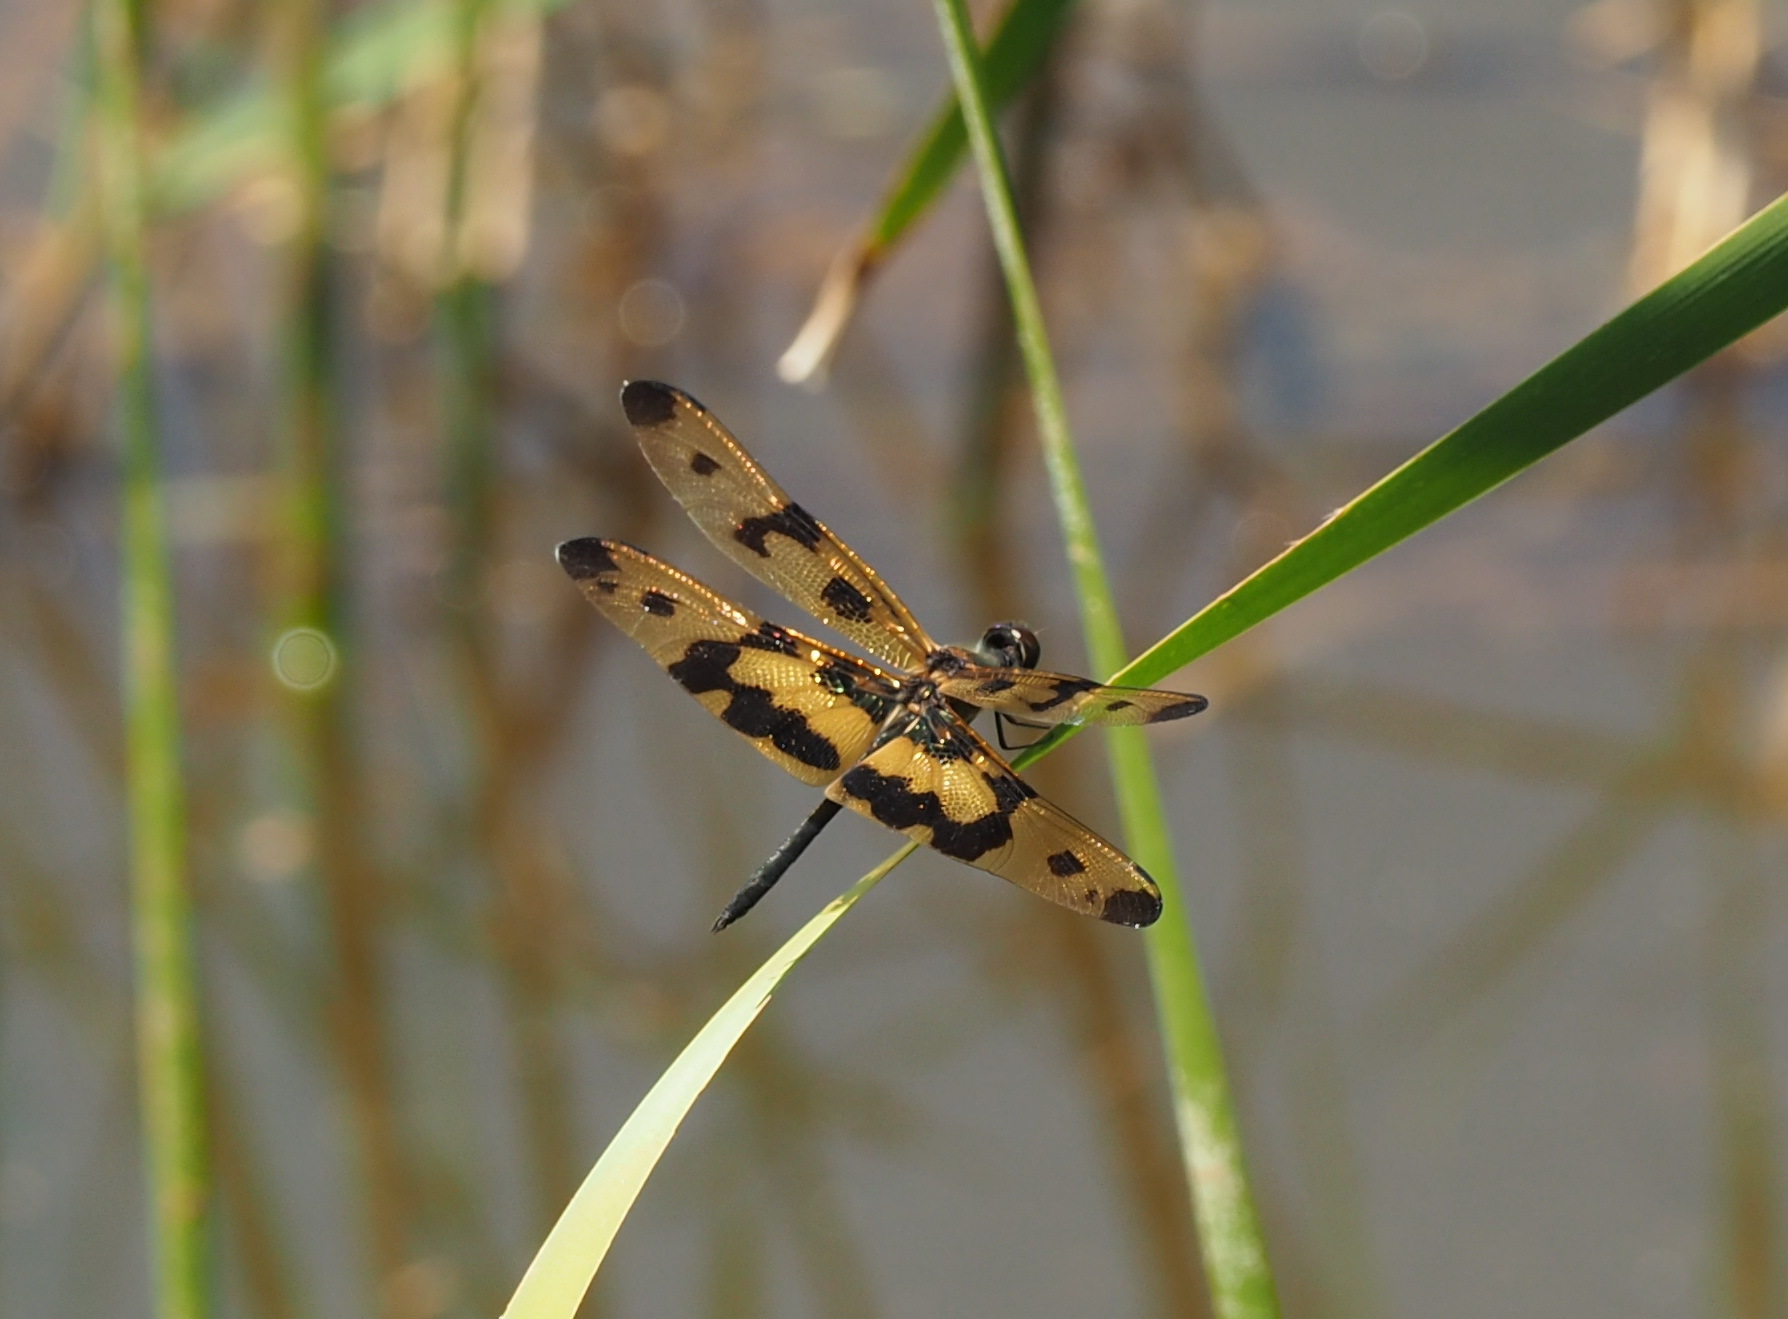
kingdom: Animalia
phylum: Arthropoda
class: Insecta
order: Odonata
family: Libellulidae
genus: Rhyothemis
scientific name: Rhyothemis variegata
